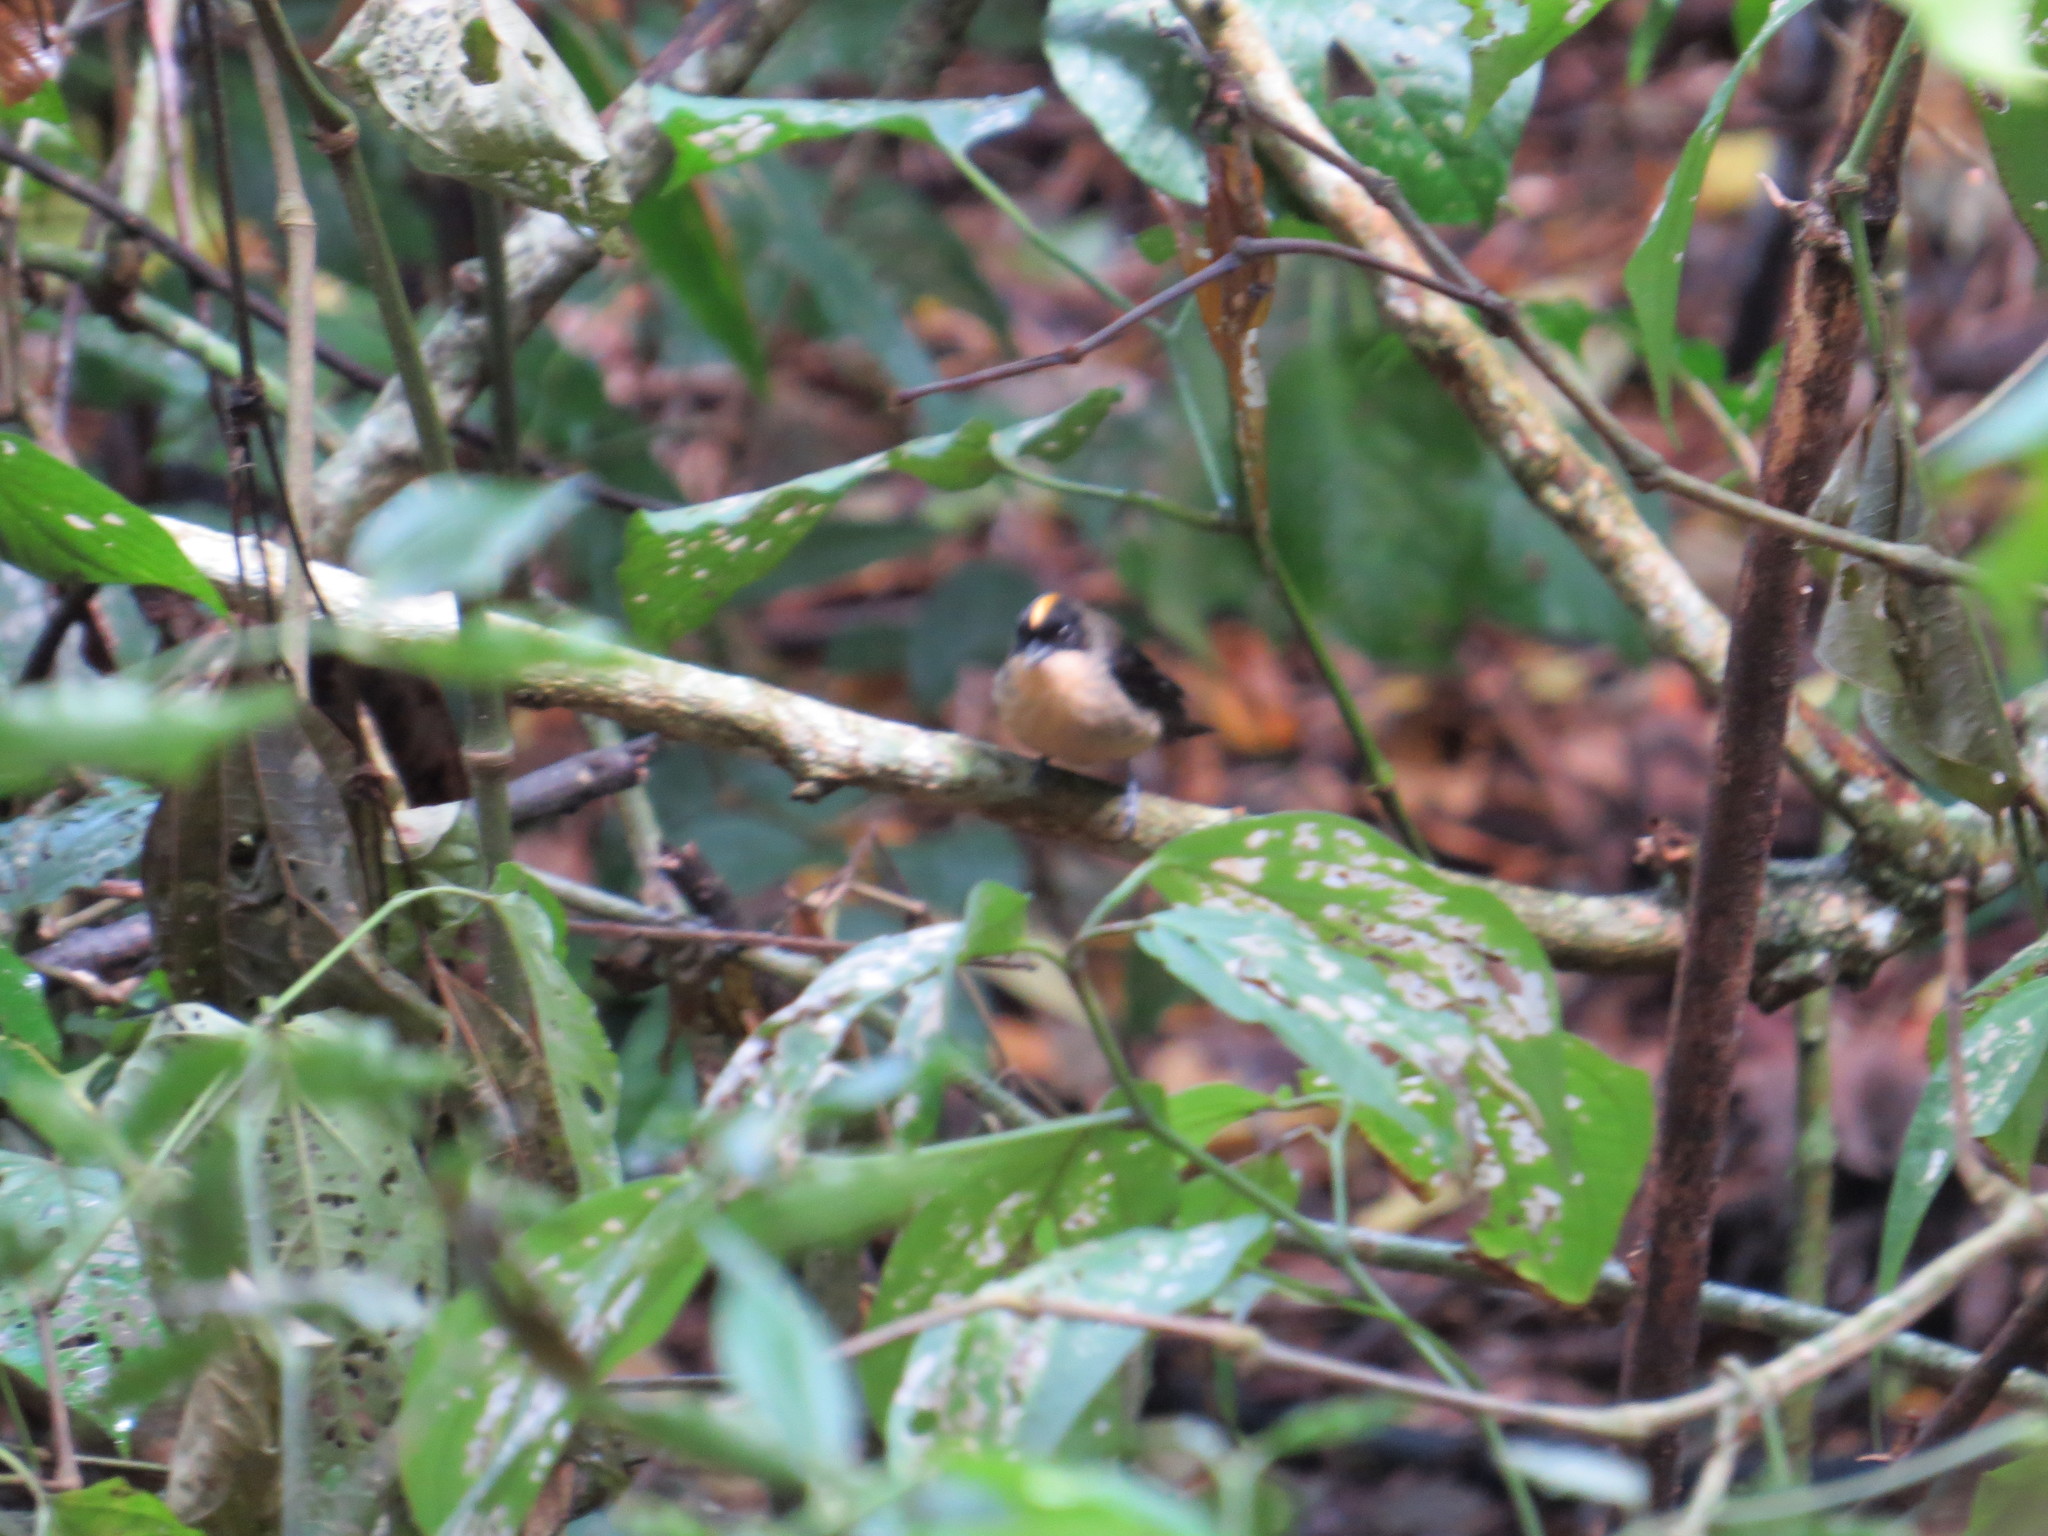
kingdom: Animalia
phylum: Chordata
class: Aves
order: Passeriformes
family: Thraupidae
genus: Trichothraupis
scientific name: Trichothraupis melanops
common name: Black-goggled tanager
